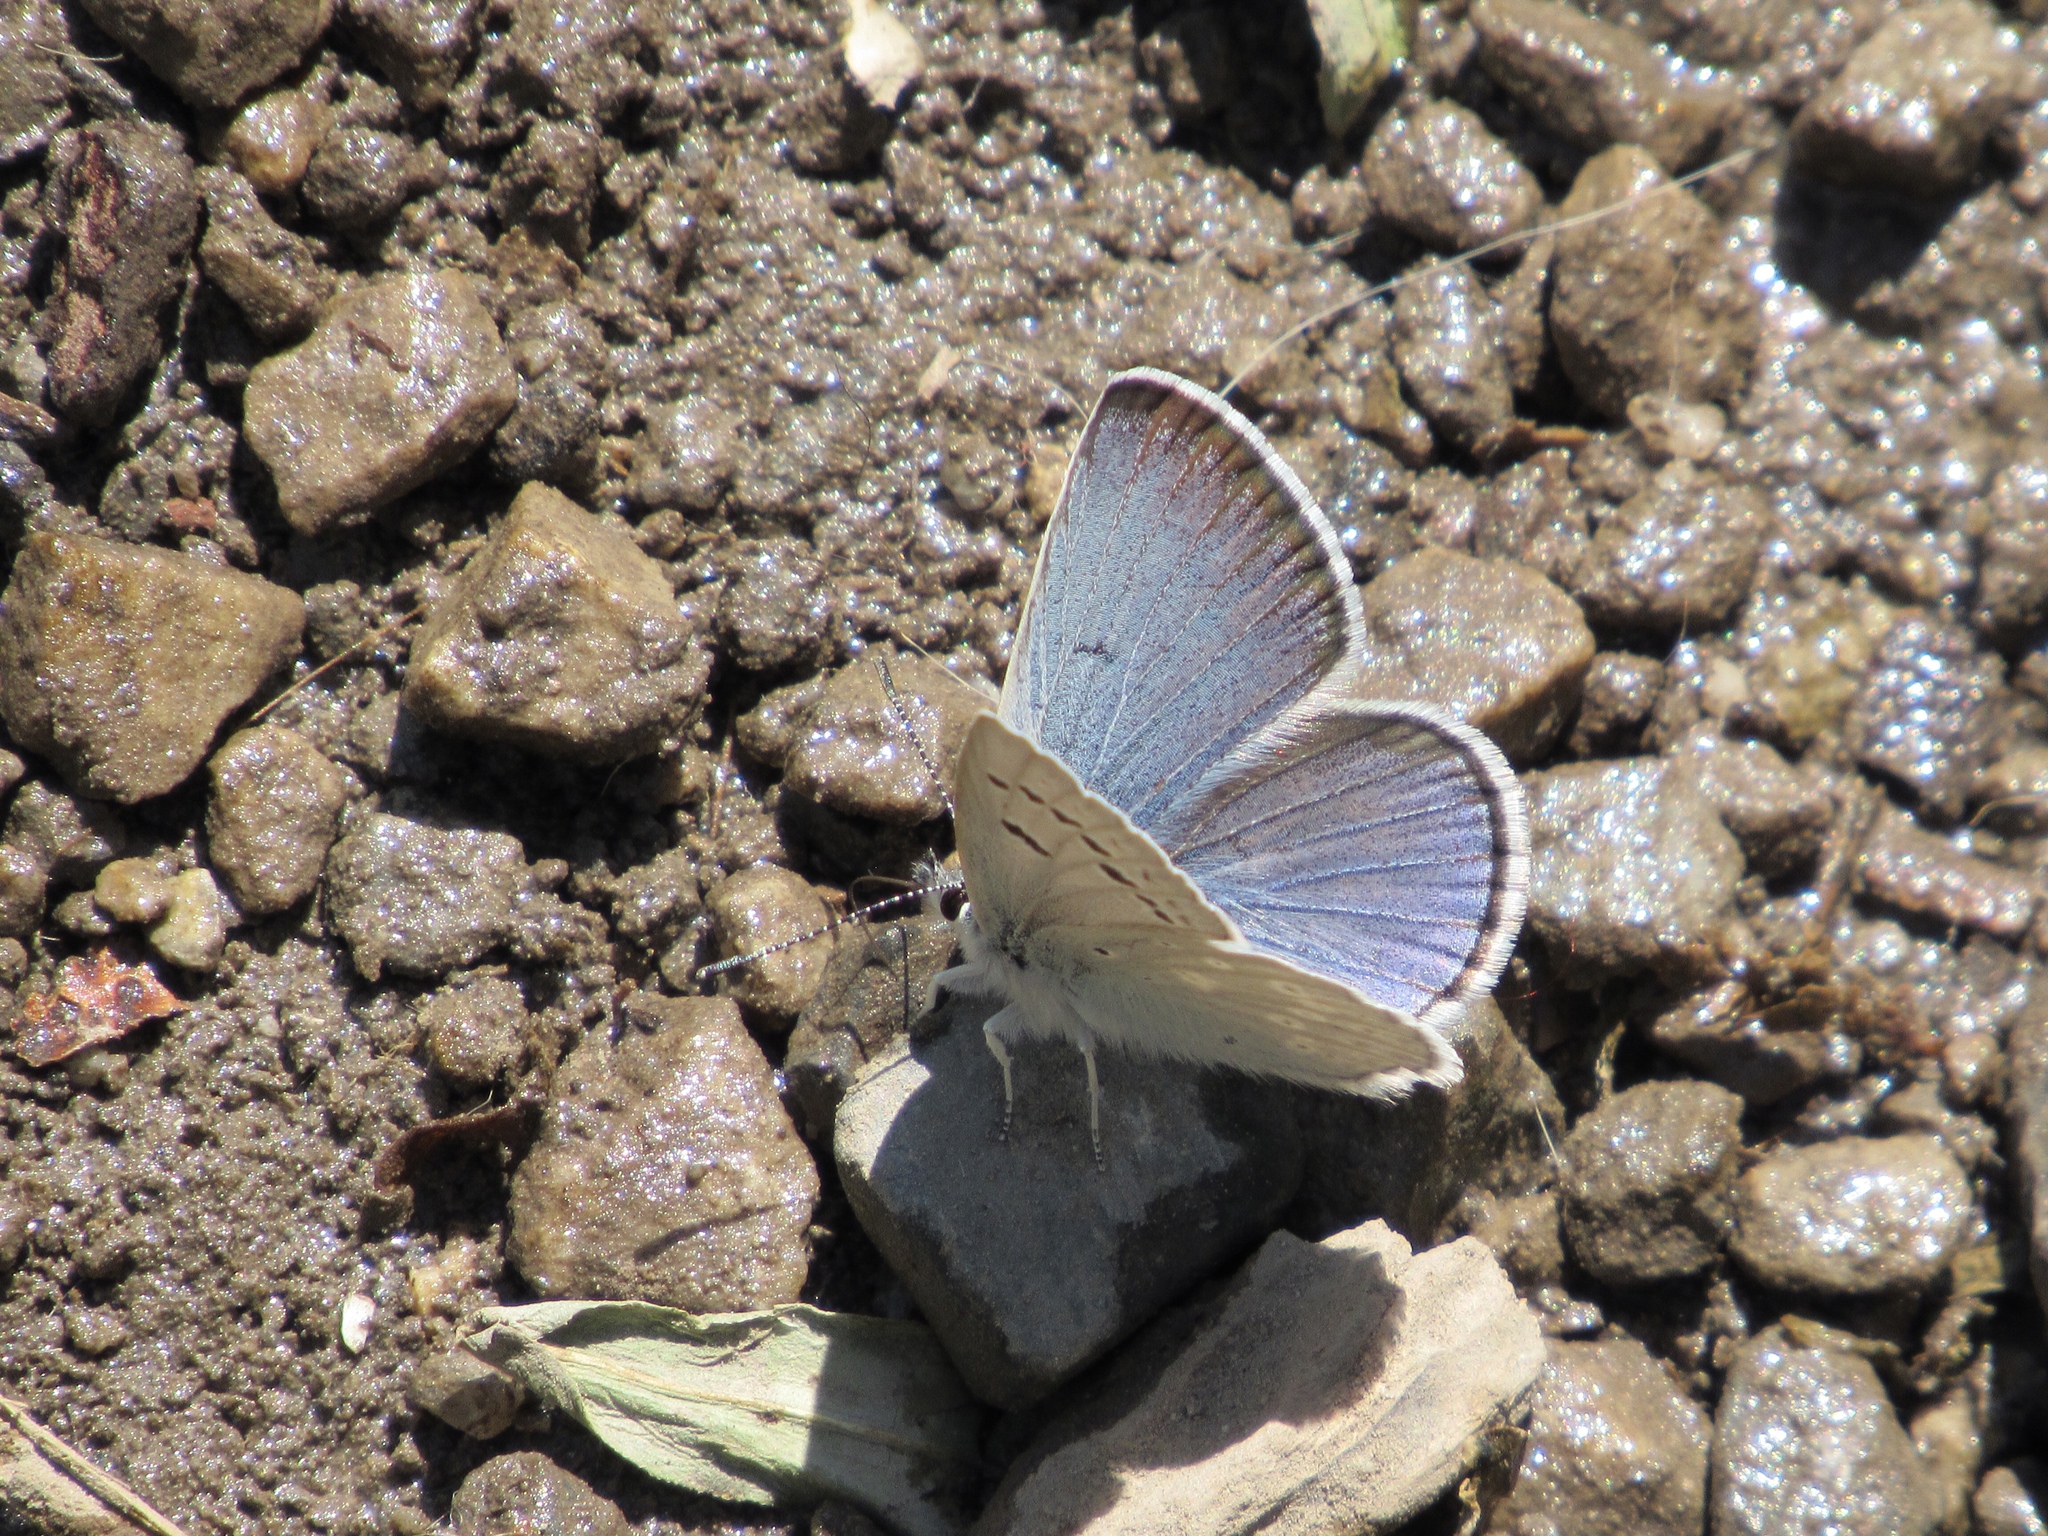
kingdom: Animalia
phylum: Arthropoda
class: Insecta
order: Lepidoptera
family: Lycaenidae
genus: Icaricia
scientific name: Icaricia icarioides
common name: Boisduval's blue
